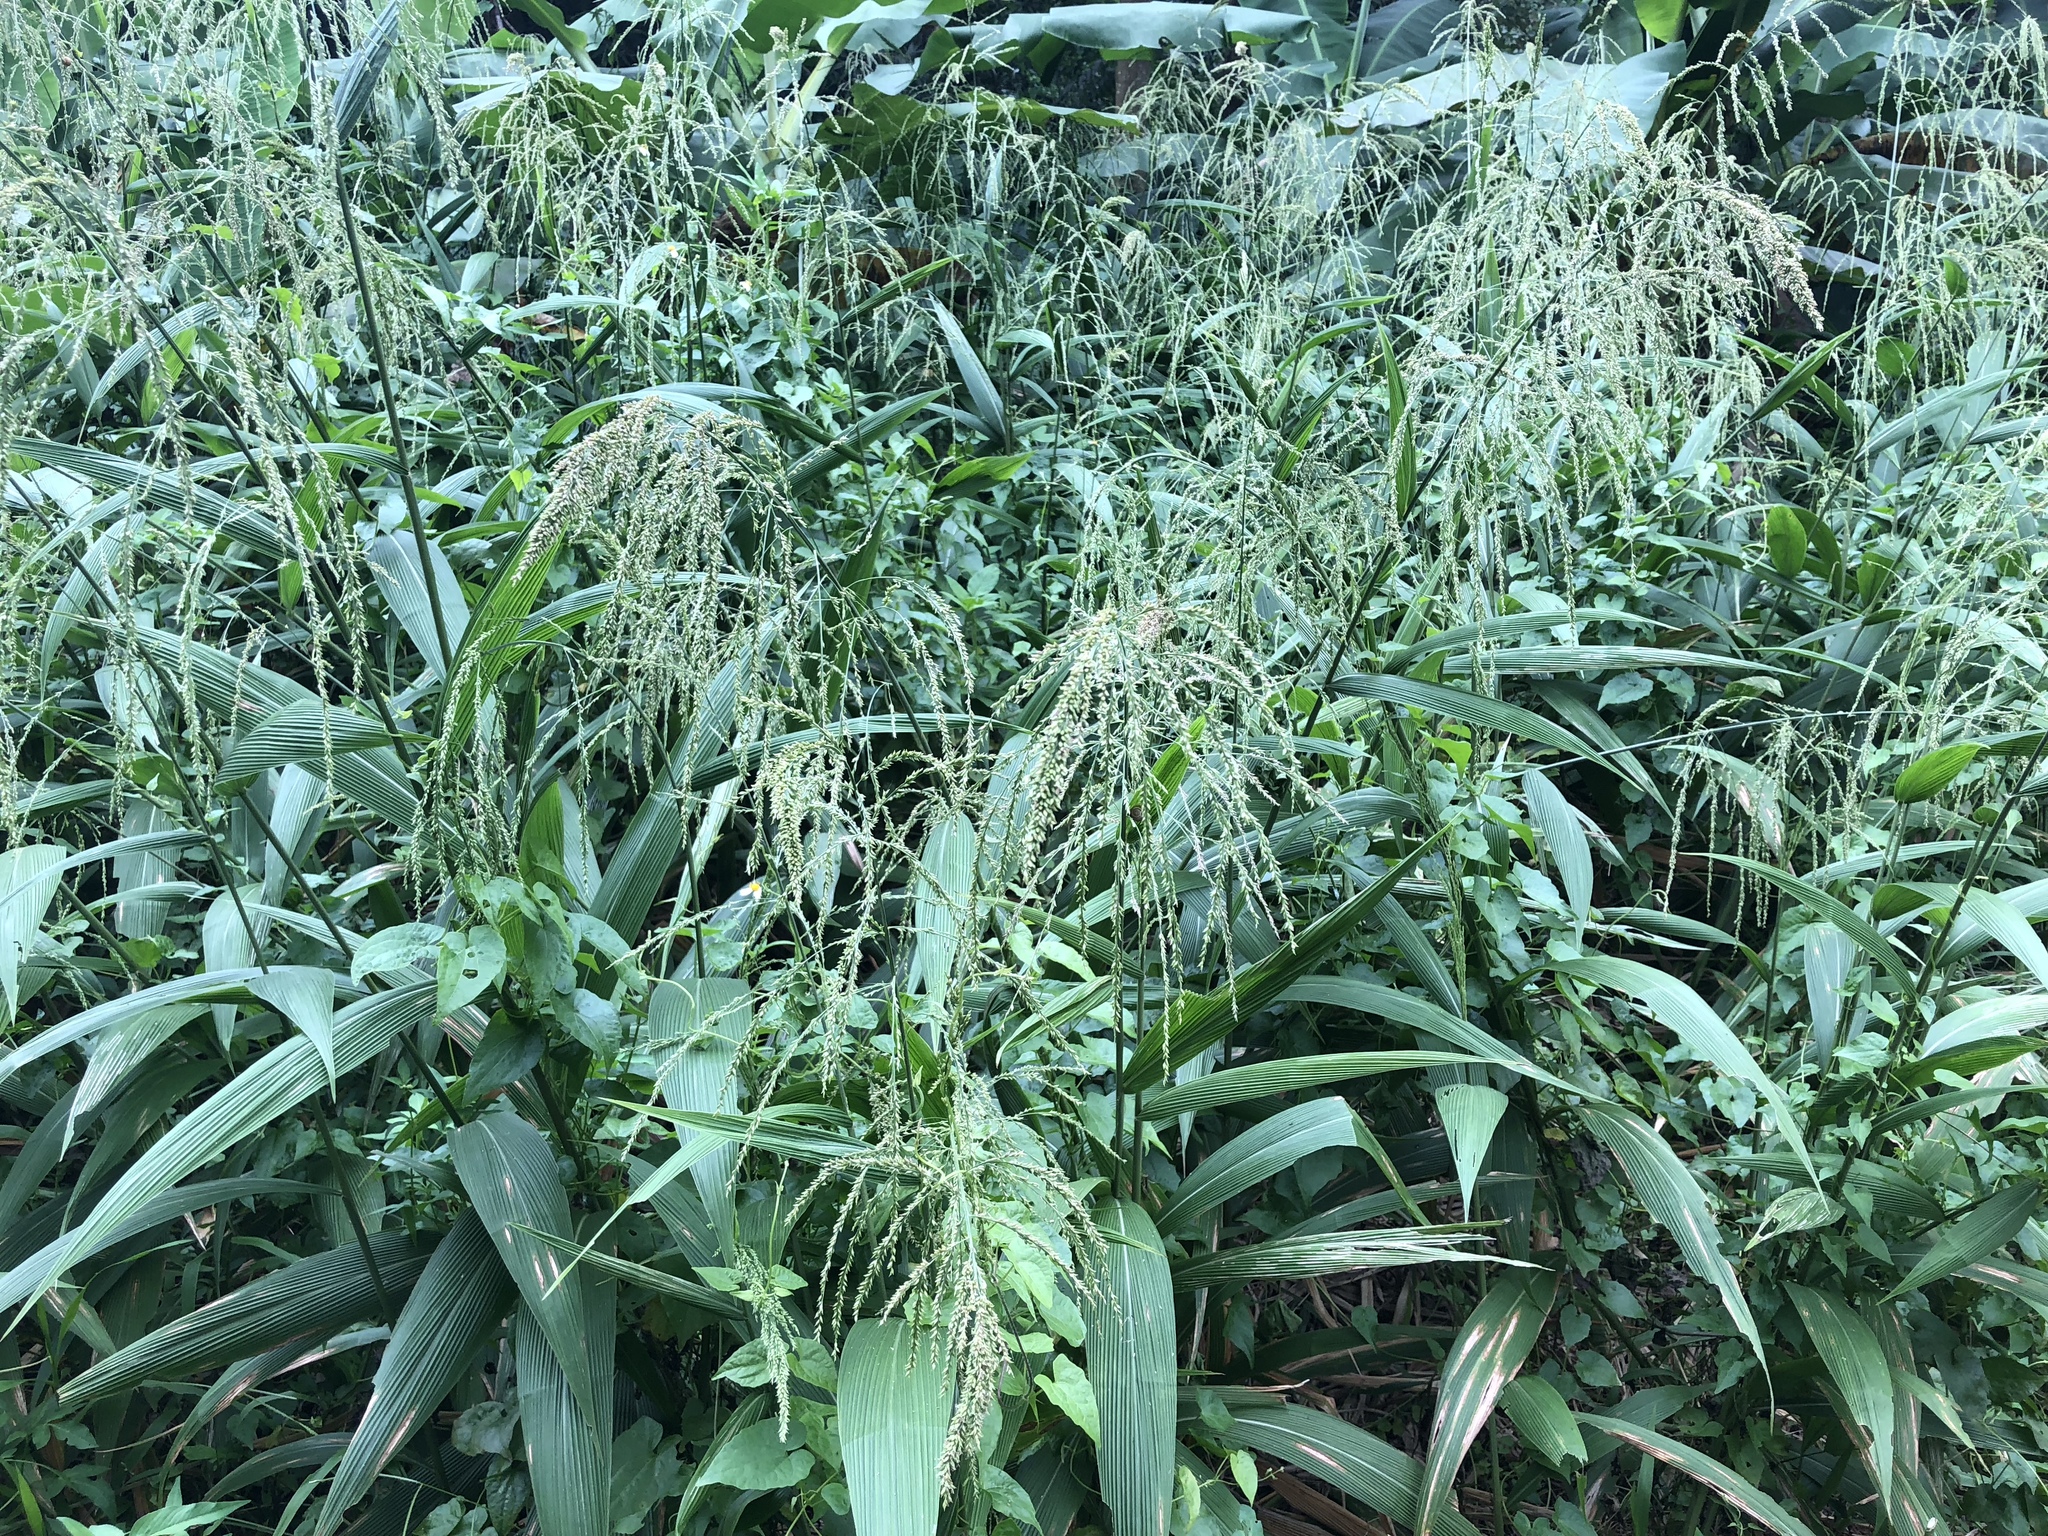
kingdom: Plantae
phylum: Tracheophyta
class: Liliopsida
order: Poales
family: Poaceae
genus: Setaria
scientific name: Setaria palmifolia
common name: Broadleaved bristlegrass
